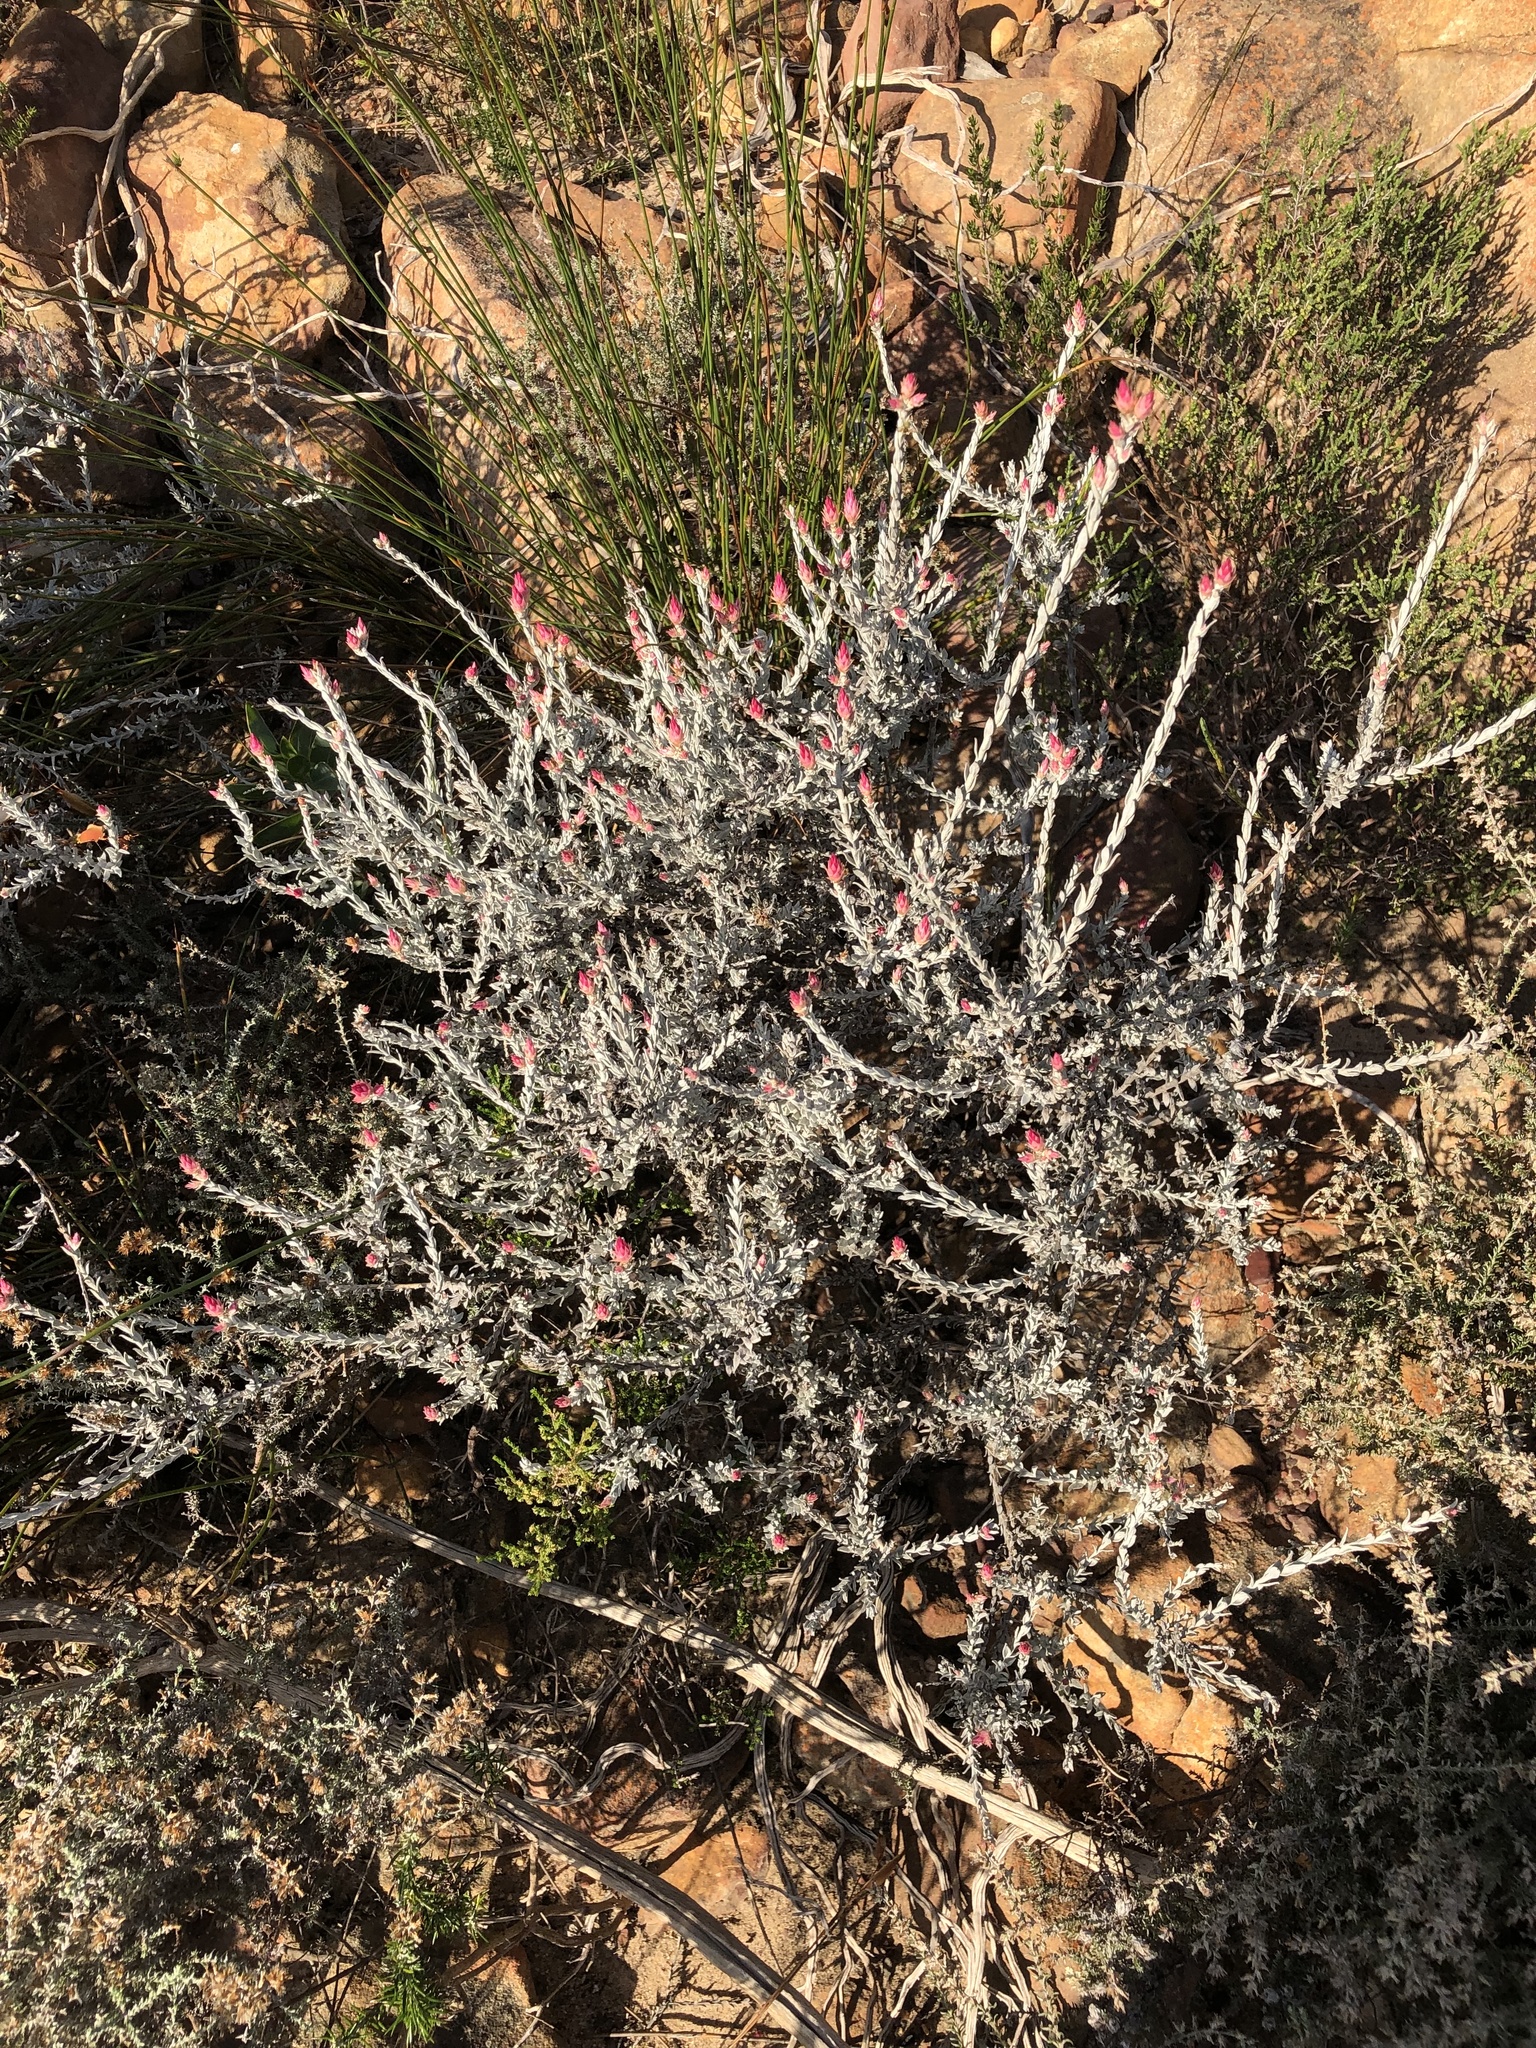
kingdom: Plantae
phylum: Tracheophyta
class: Magnoliopsida
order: Asterales
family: Asteraceae
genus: Syncarpha
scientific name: Syncarpha canescens
